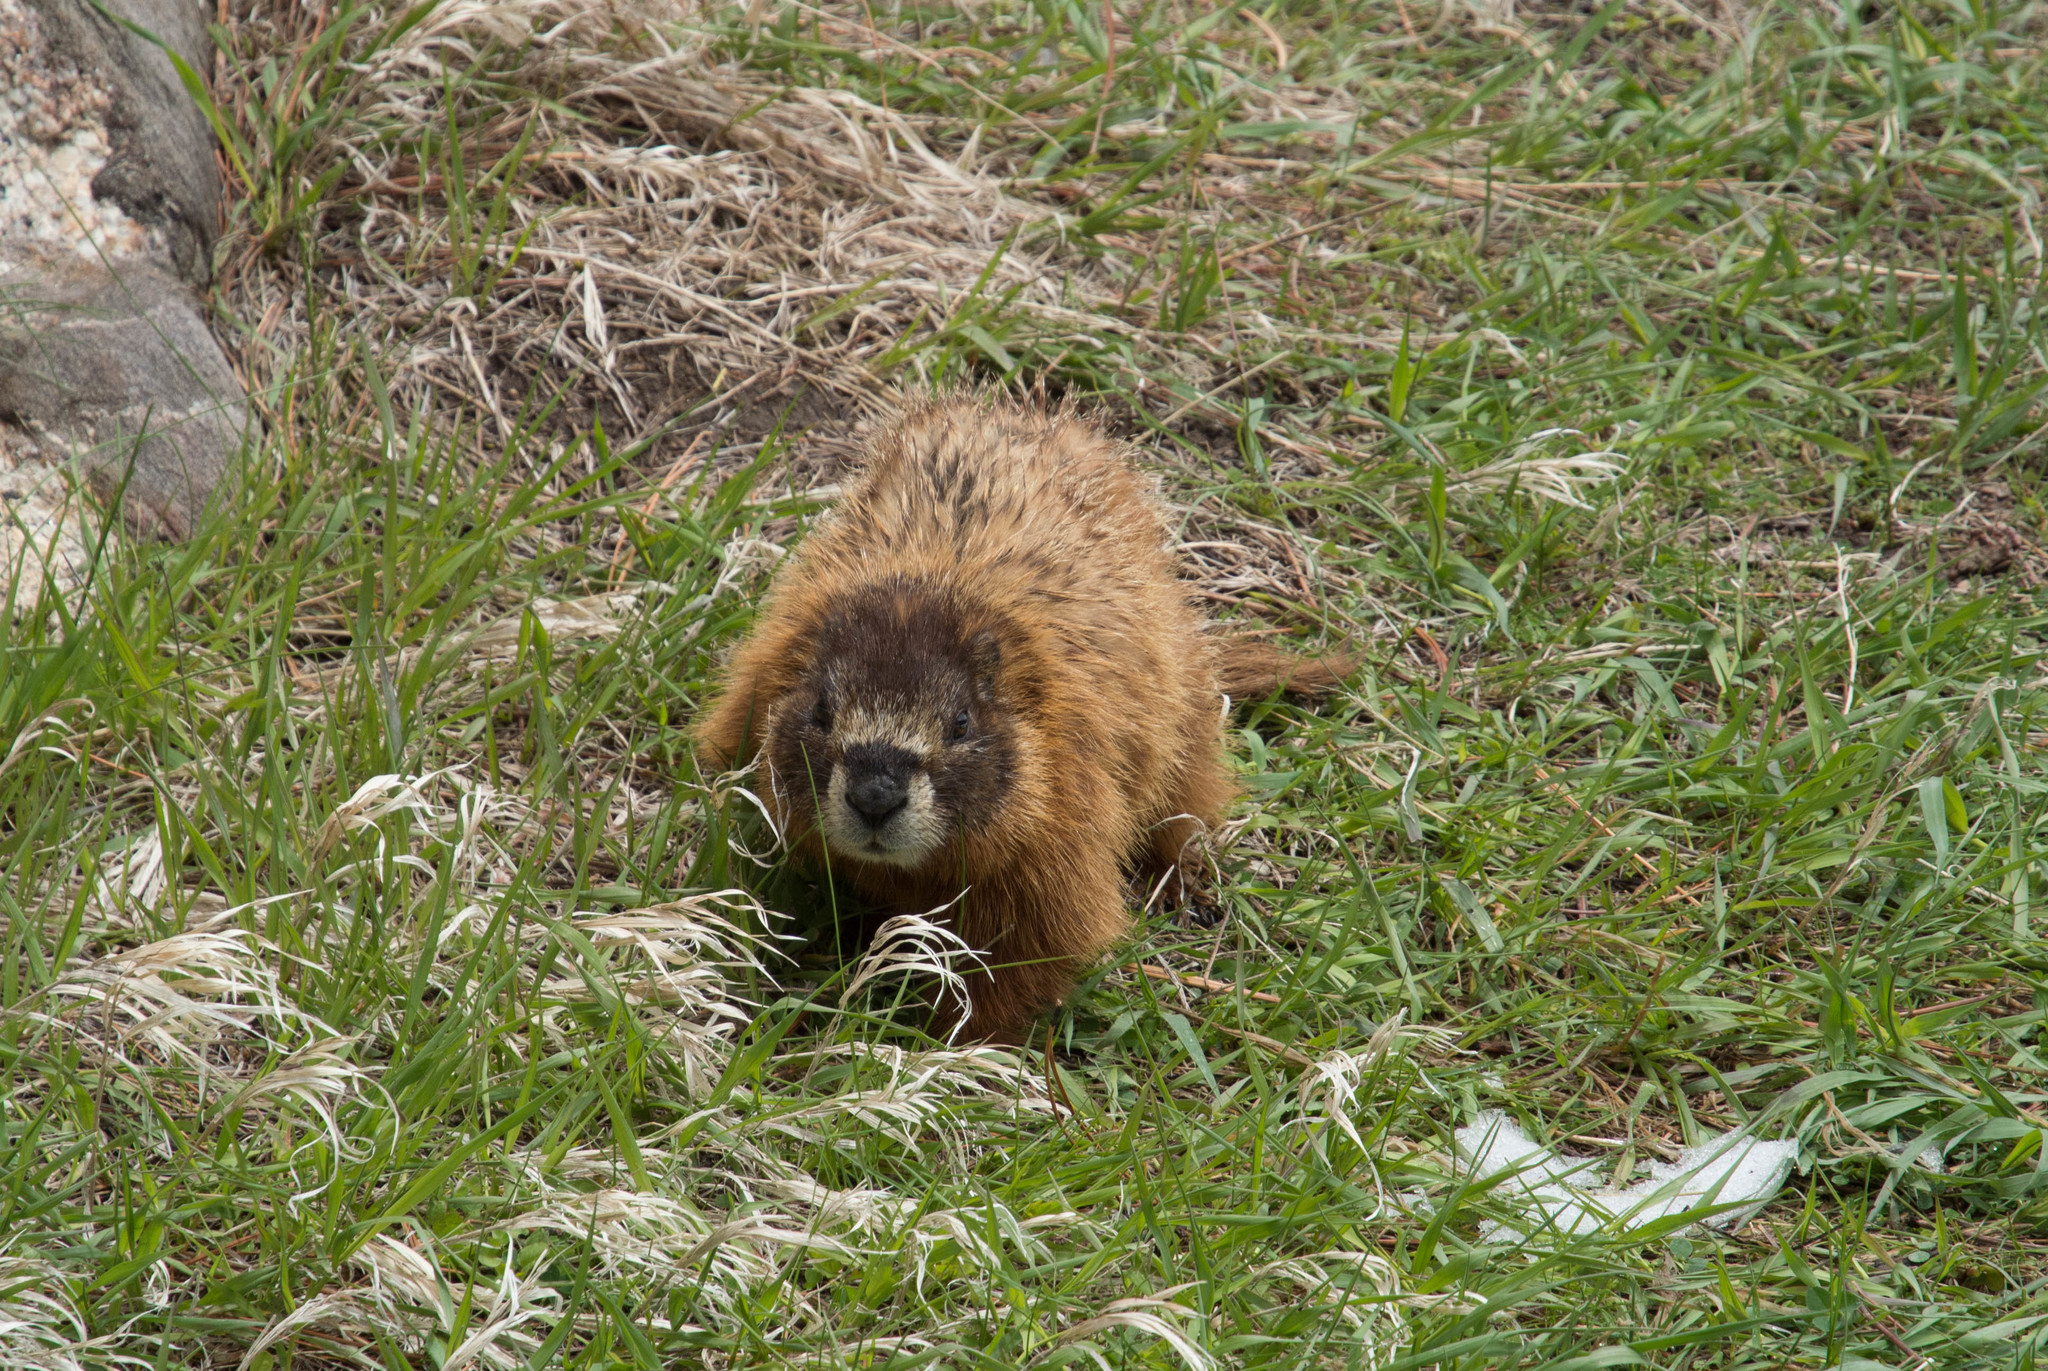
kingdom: Animalia
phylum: Chordata
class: Mammalia
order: Rodentia
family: Sciuridae
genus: Marmota
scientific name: Marmota flaviventris
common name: Yellow-bellied marmot
